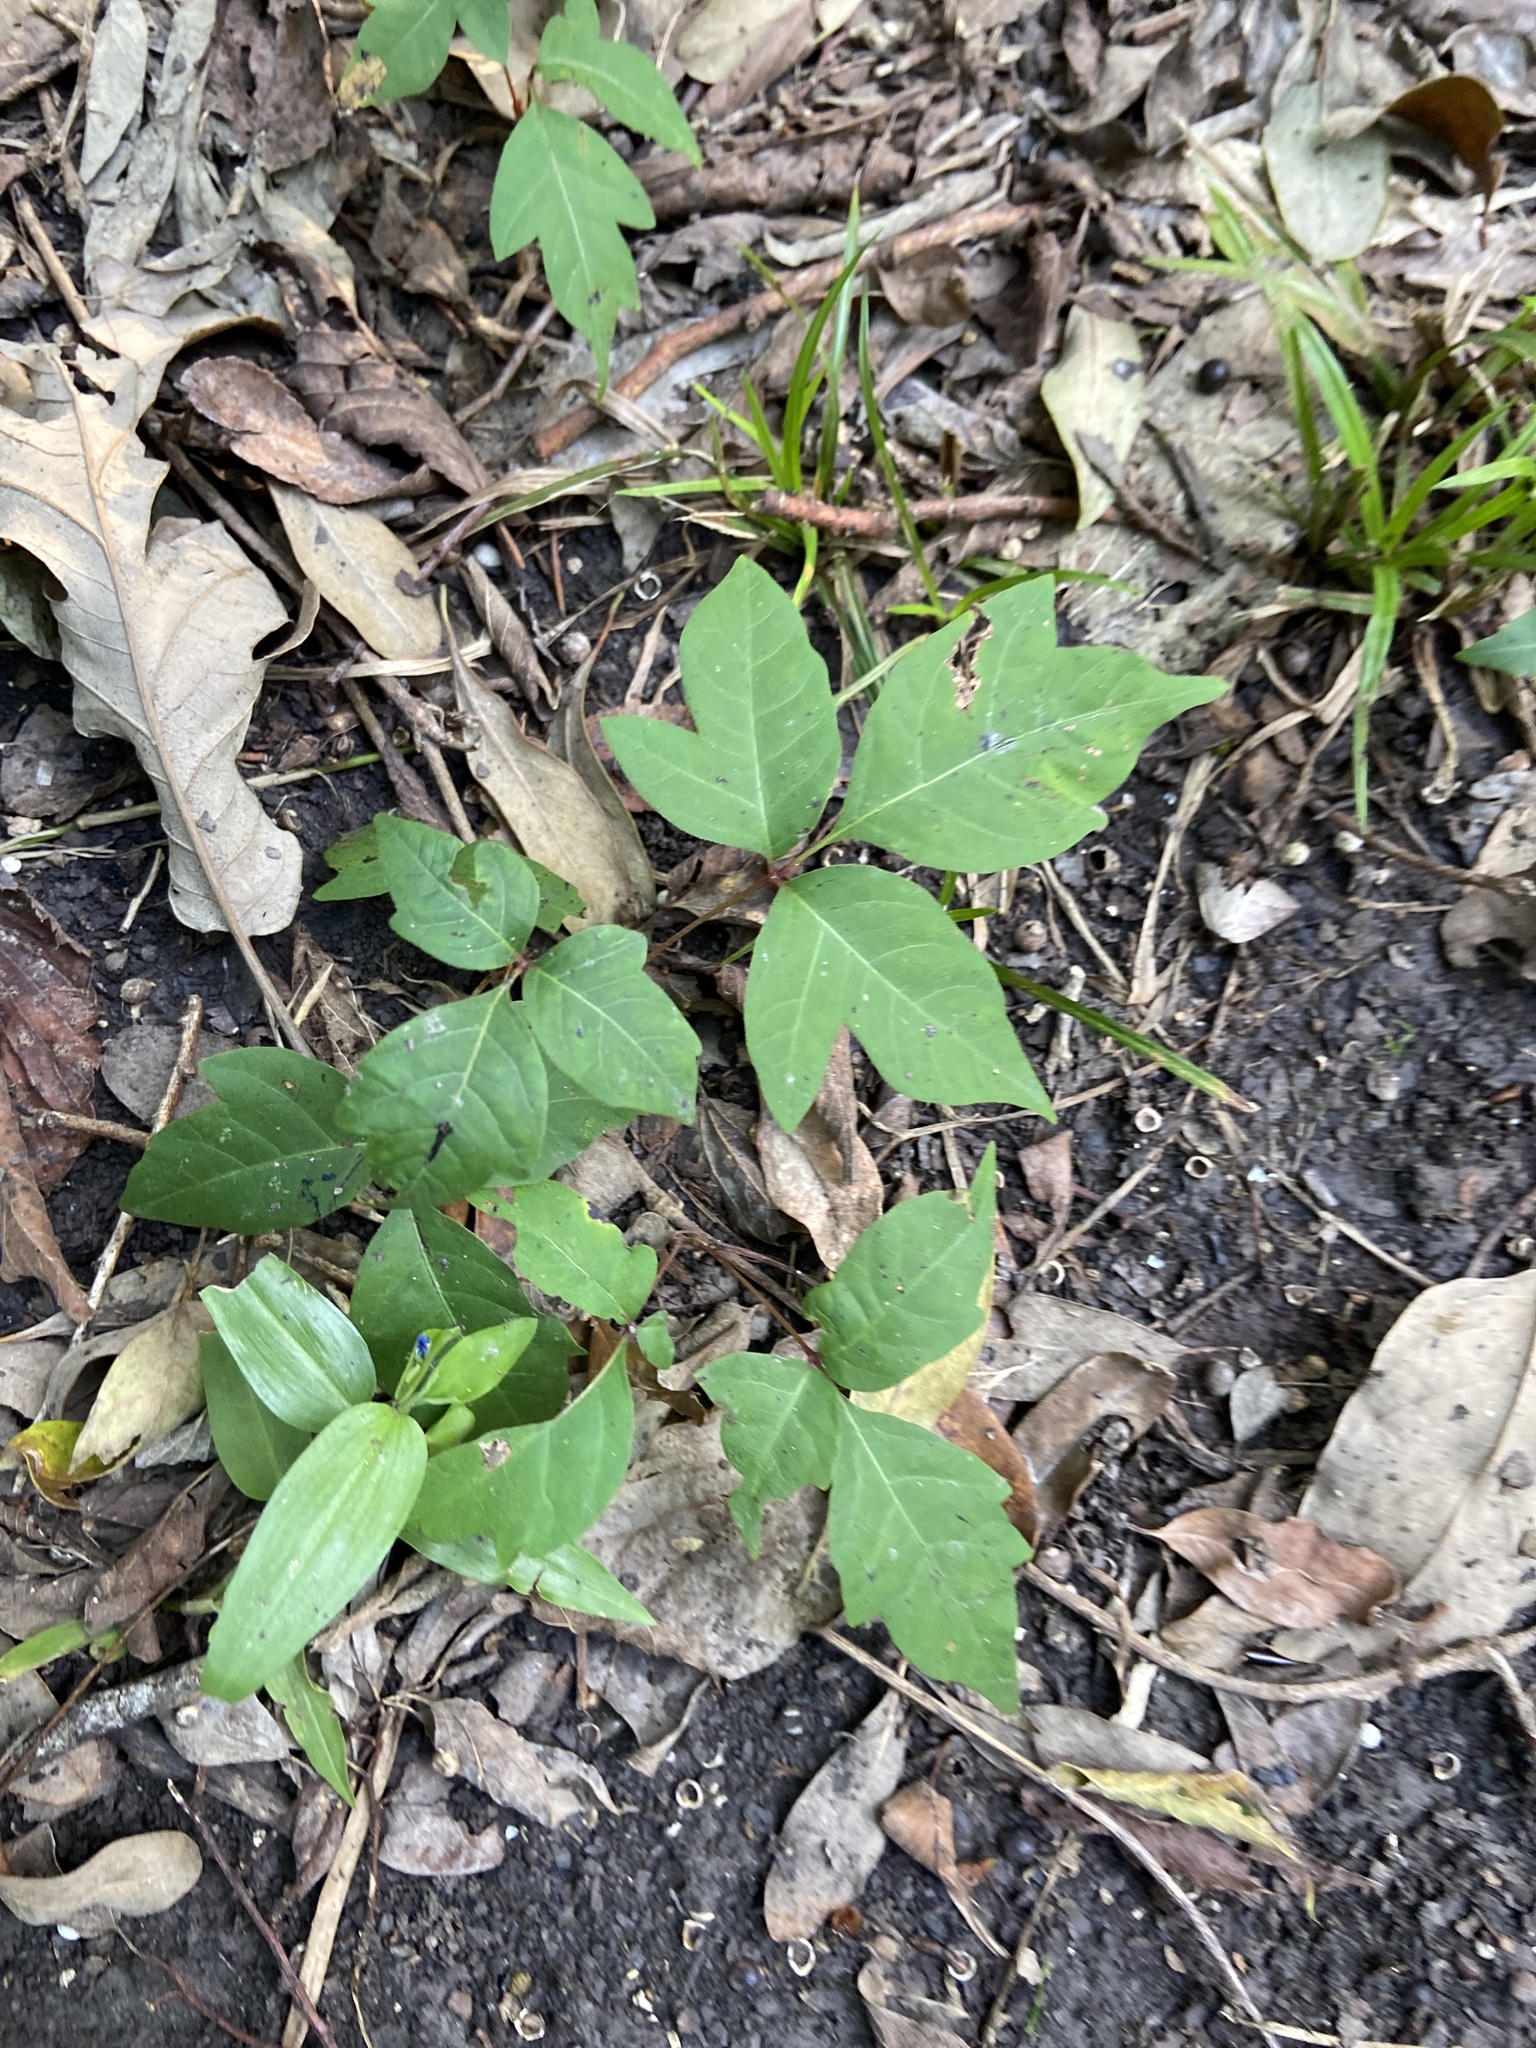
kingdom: Plantae
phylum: Tracheophyta
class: Magnoliopsida
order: Sapindales
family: Anacardiaceae
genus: Toxicodendron
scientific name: Toxicodendron radicans
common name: Poison ivy
